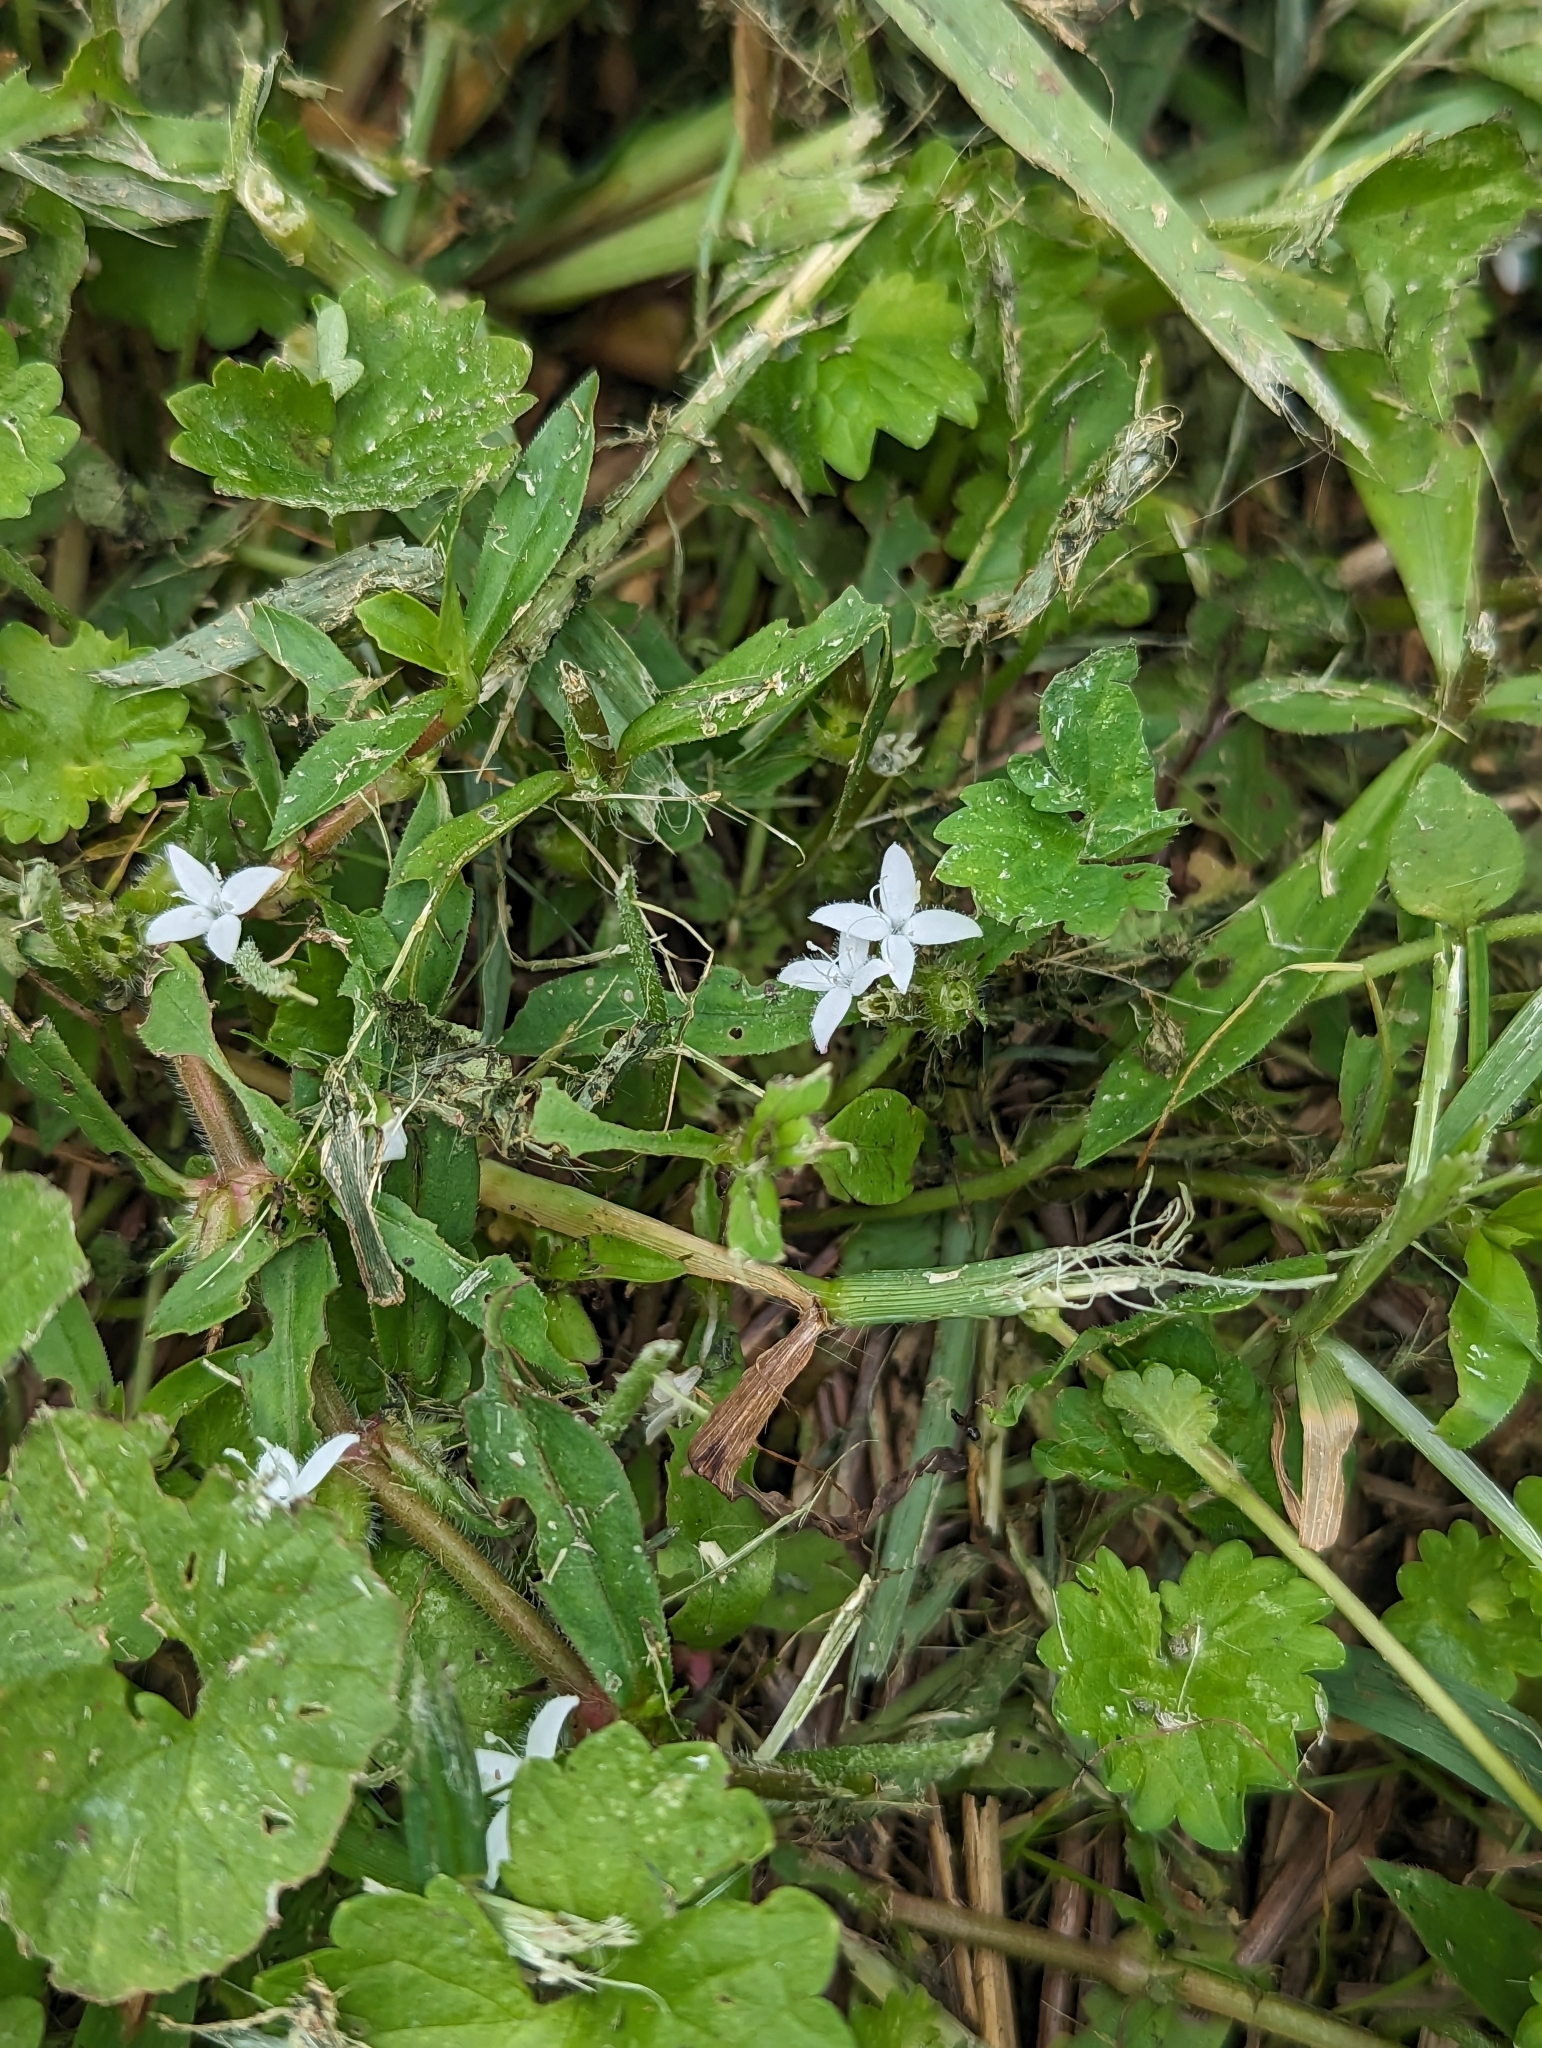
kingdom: Plantae
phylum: Tracheophyta
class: Magnoliopsida
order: Gentianales
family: Rubiaceae
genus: Diodia
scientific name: Diodia virginiana
